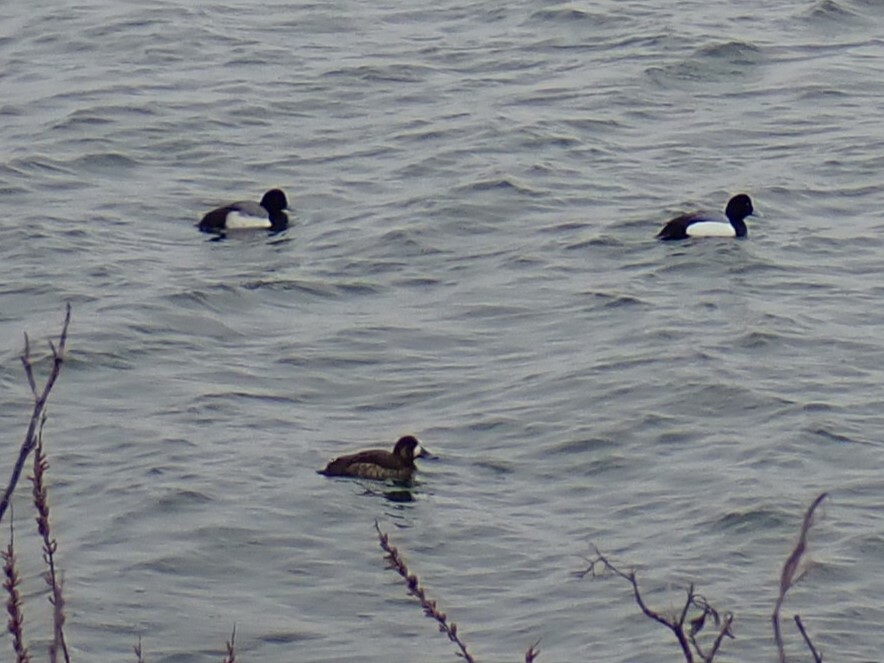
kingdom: Animalia
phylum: Chordata
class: Aves
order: Anseriformes
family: Anatidae
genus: Aythya
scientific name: Aythya marila
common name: Greater scaup
